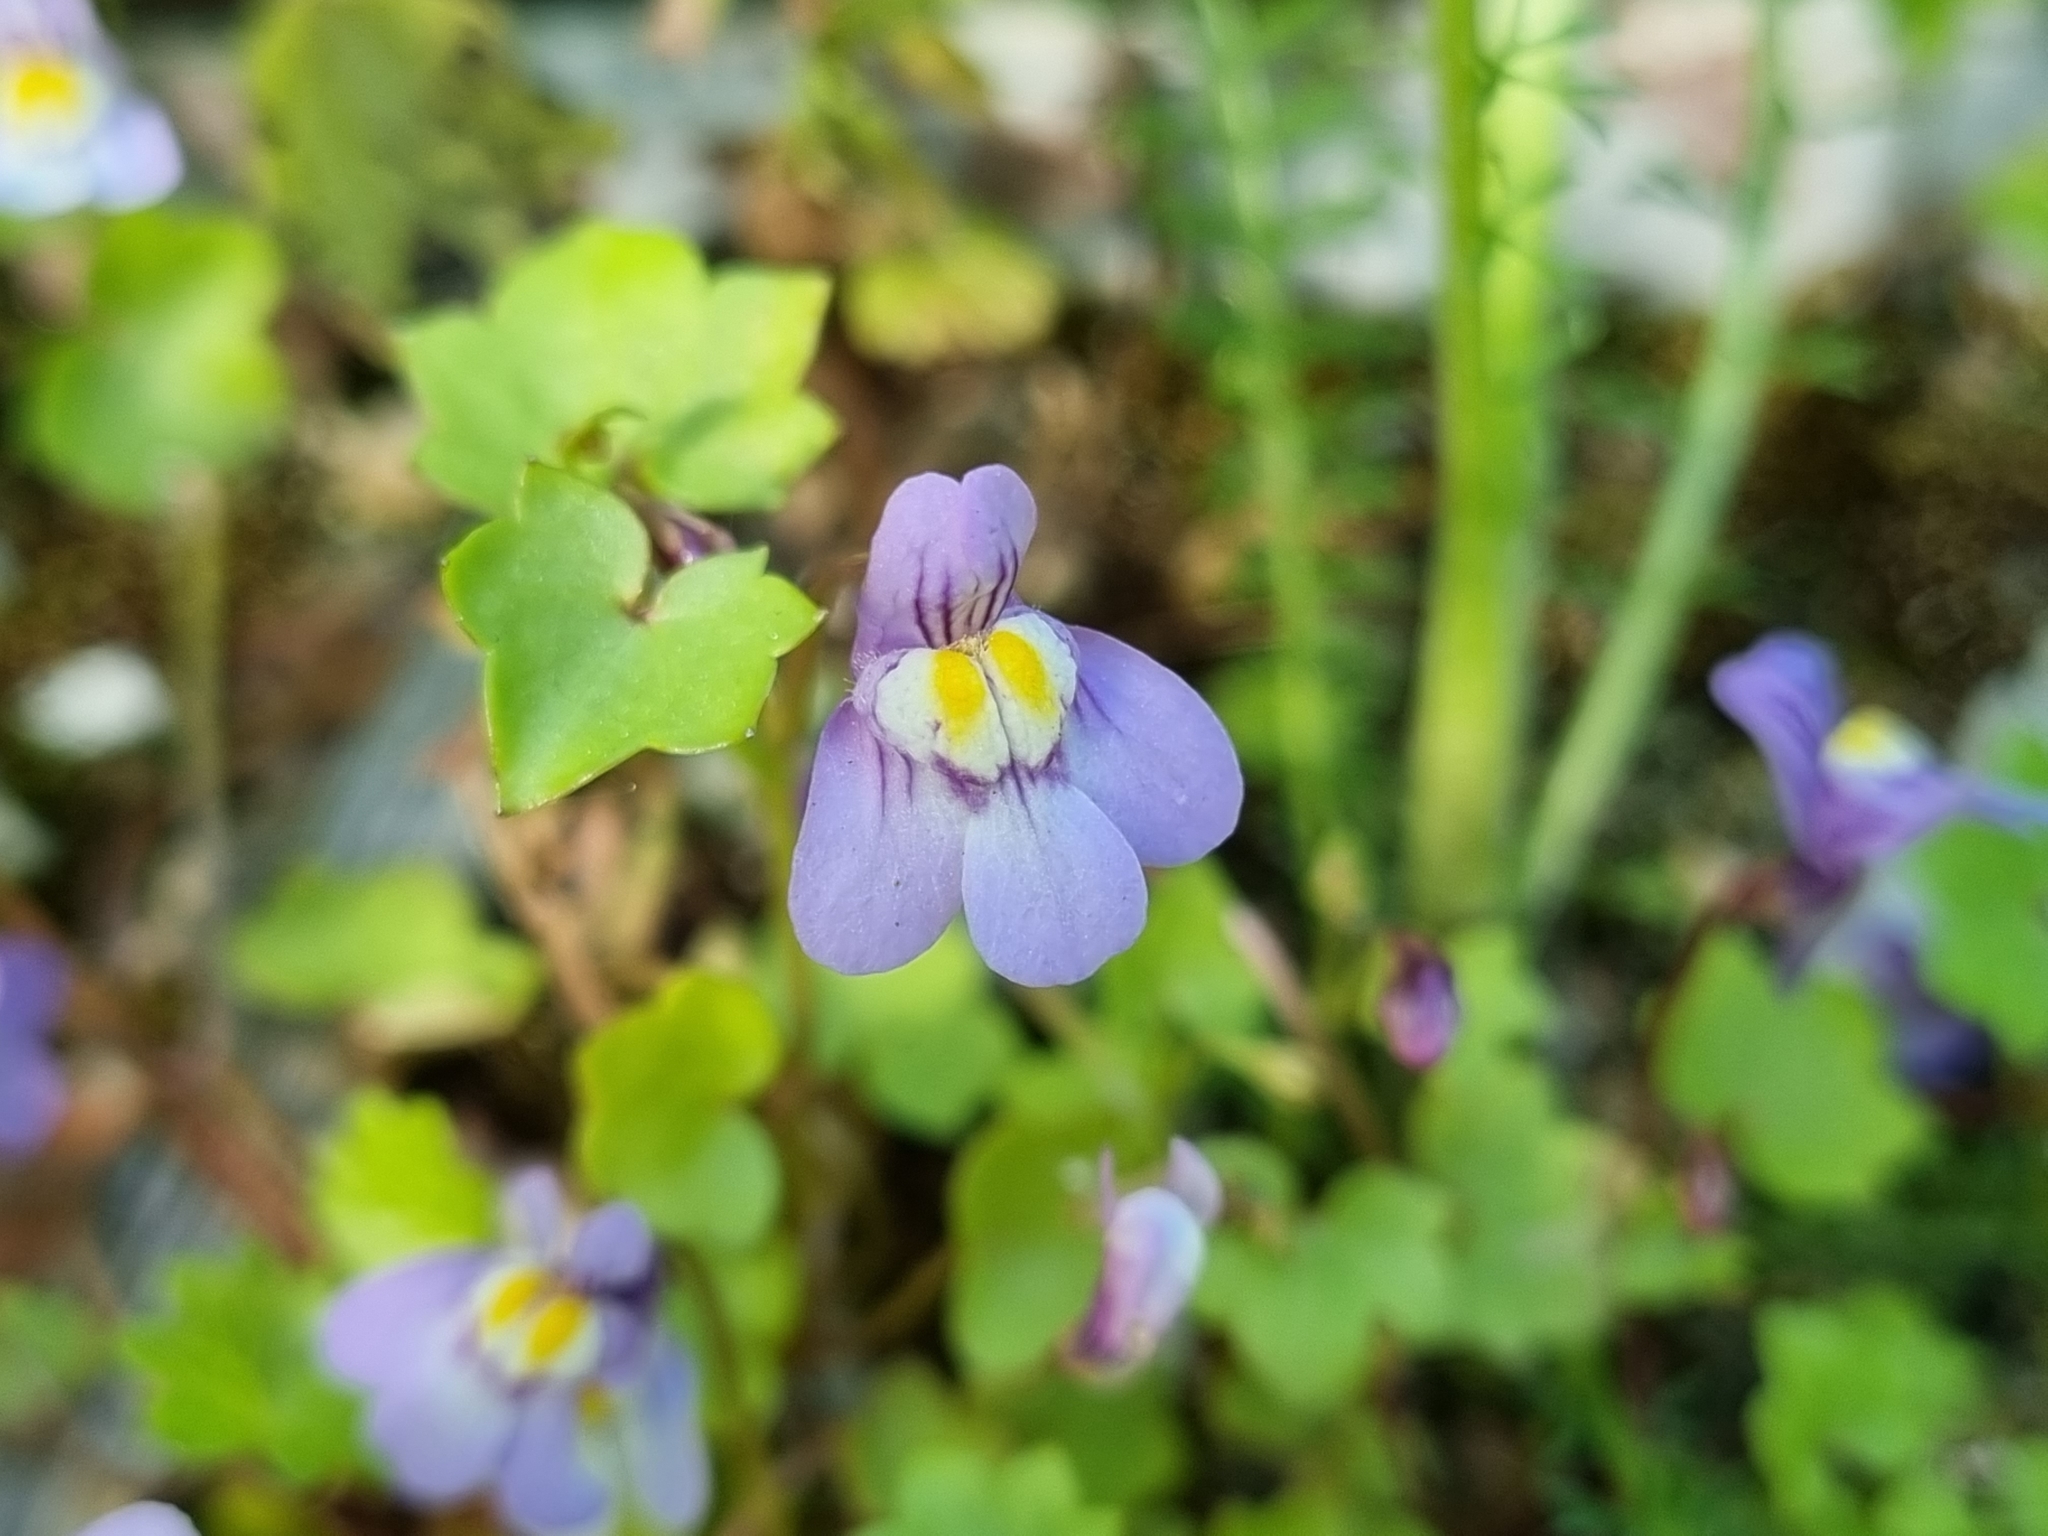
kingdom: Plantae
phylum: Tracheophyta
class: Magnoliopsida
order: Lamiales
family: Plantaginaceae
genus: Cymbalaria
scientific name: Cymbalaria muralis
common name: Ivy-leaved toadflax
